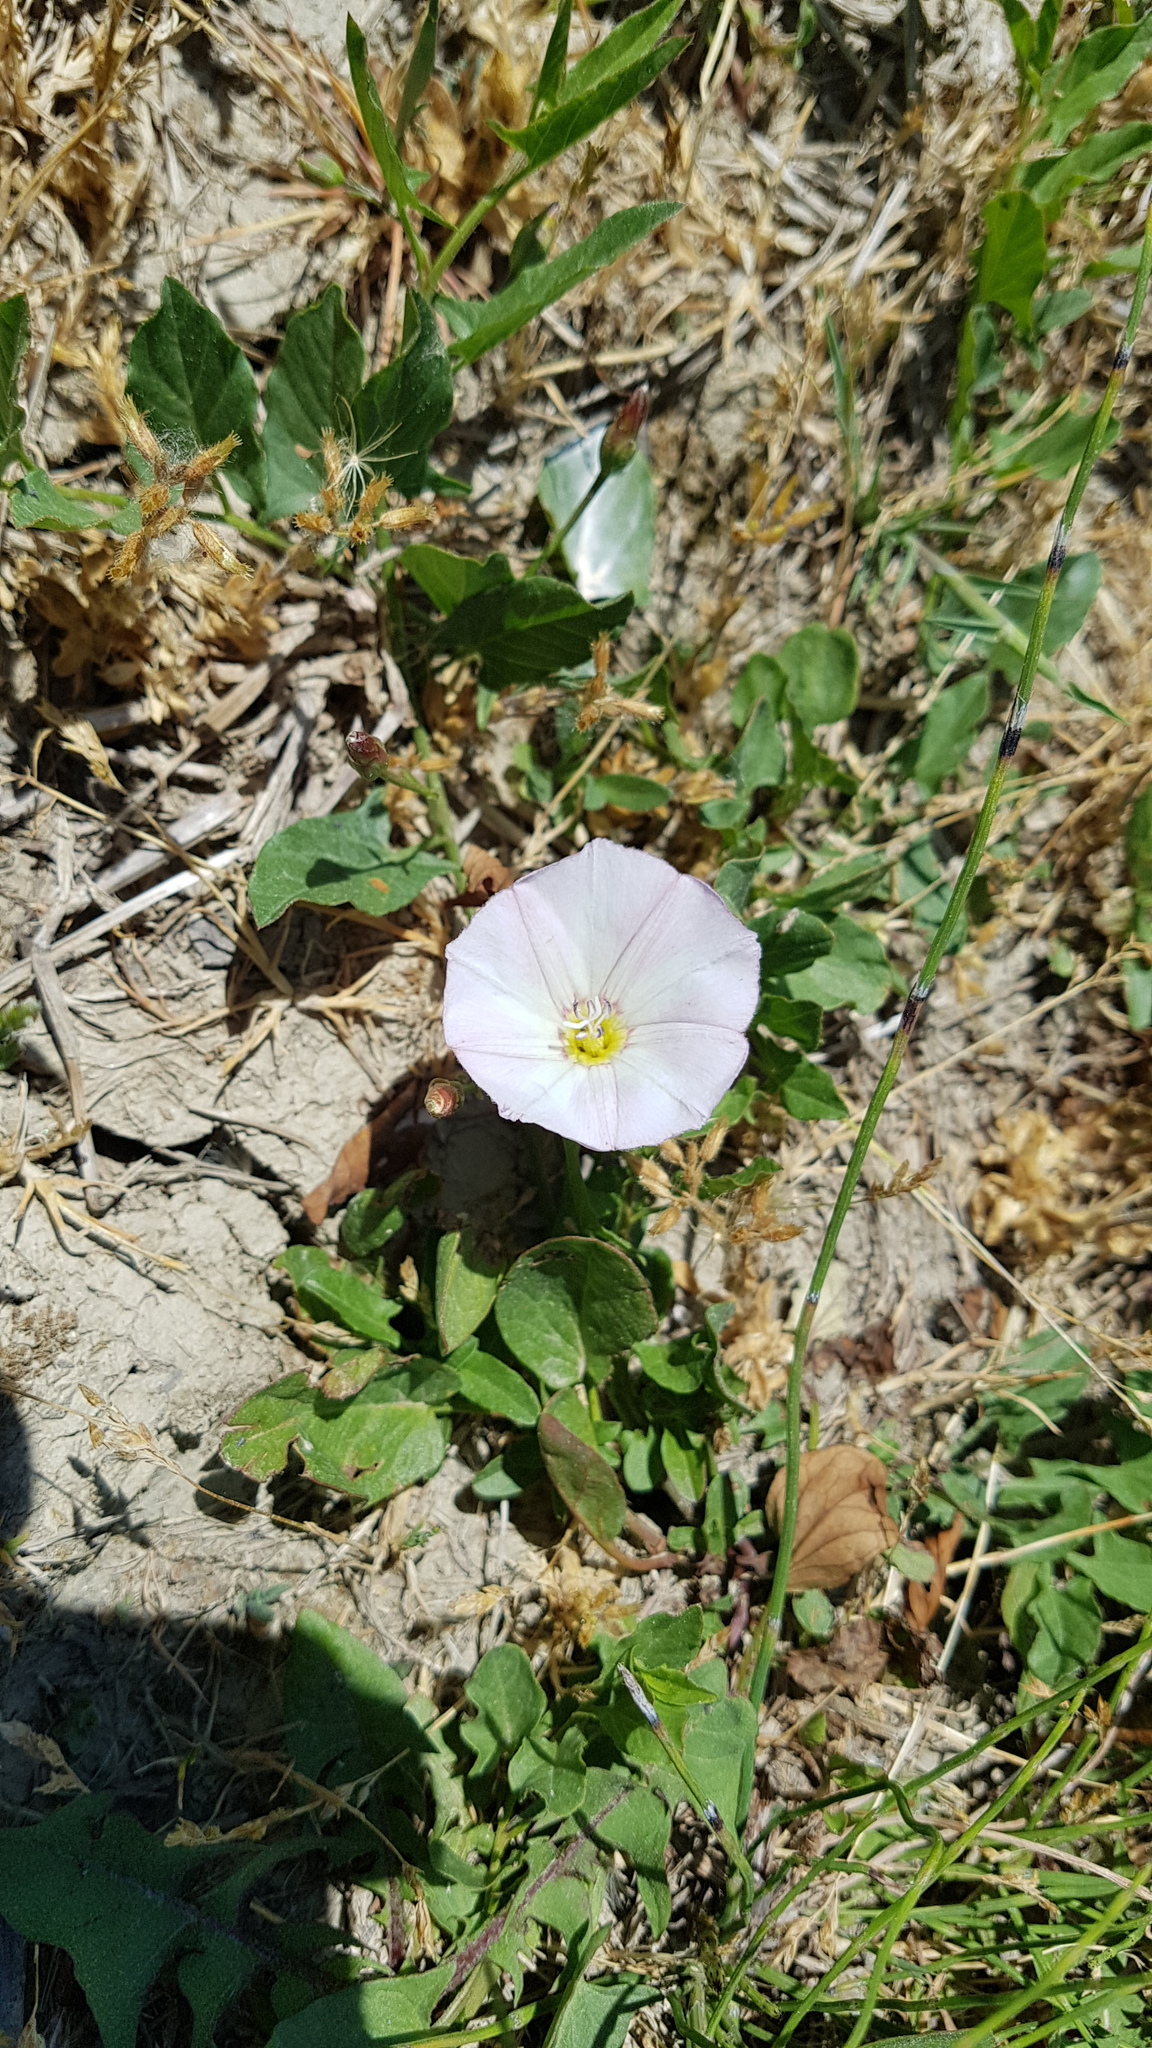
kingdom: Plantae
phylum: Tracheophyta
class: Magnoliopsida
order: Solanales
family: Convolvulaceae
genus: Convolvulus
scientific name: Convolvulus arvensis
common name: Field bindweed
